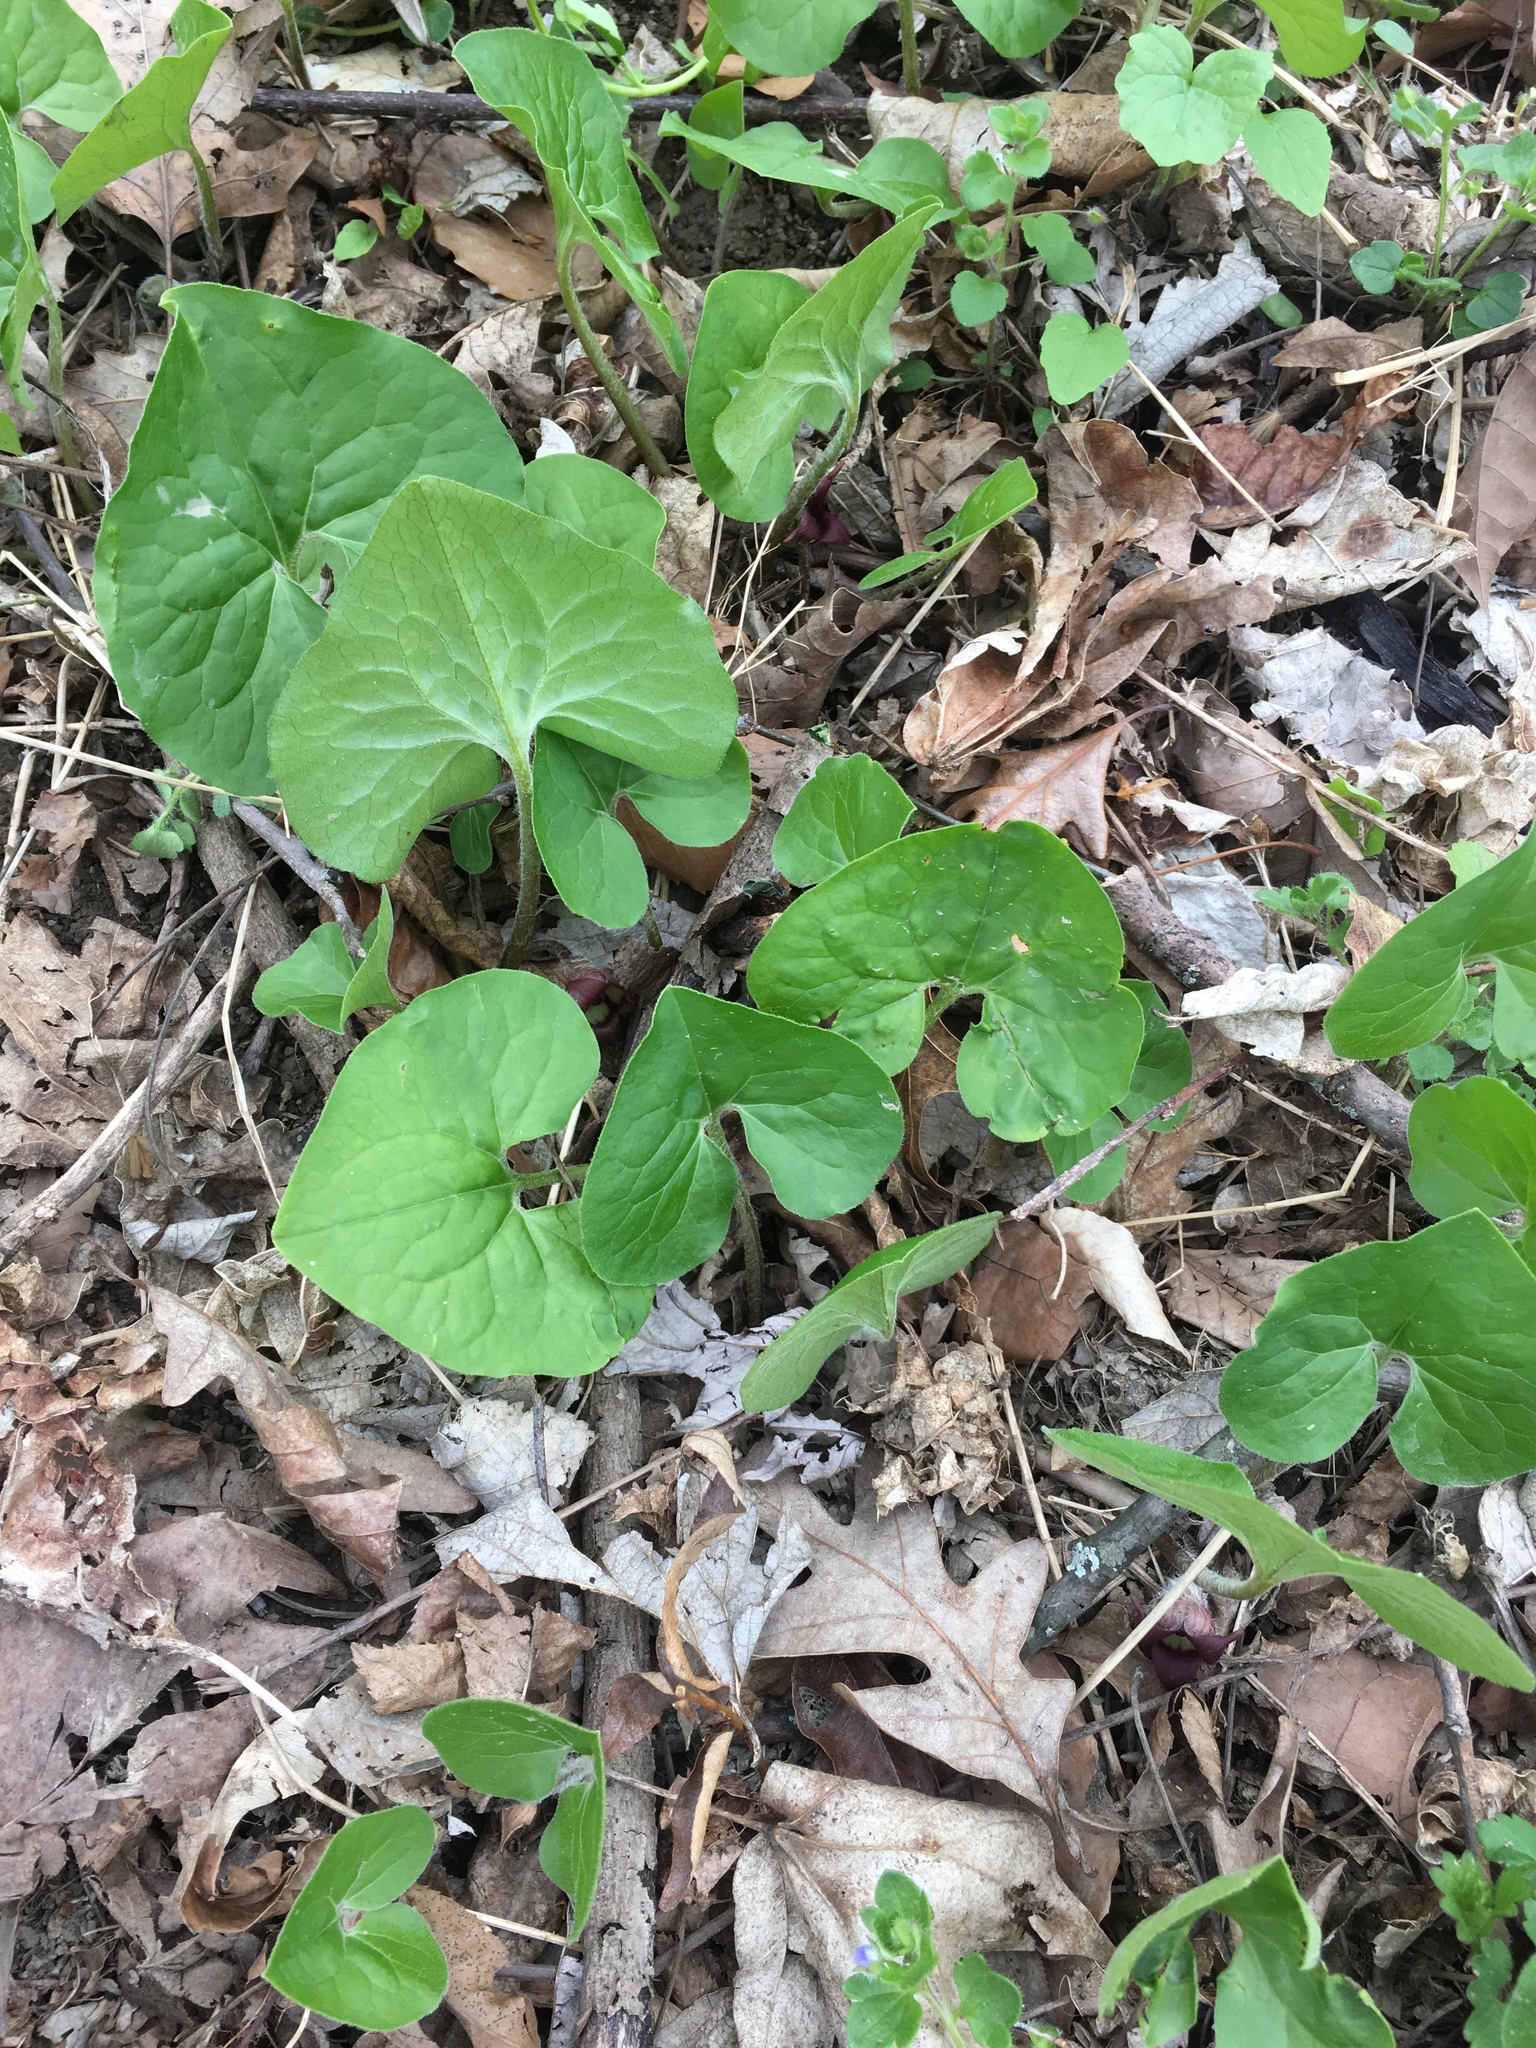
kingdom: Plantae
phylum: Tracheophyta
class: Magnoliopsida
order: Piperales
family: Aristolochiaceae
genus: Asarum
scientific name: Asarum canadense
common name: Wild ginger
